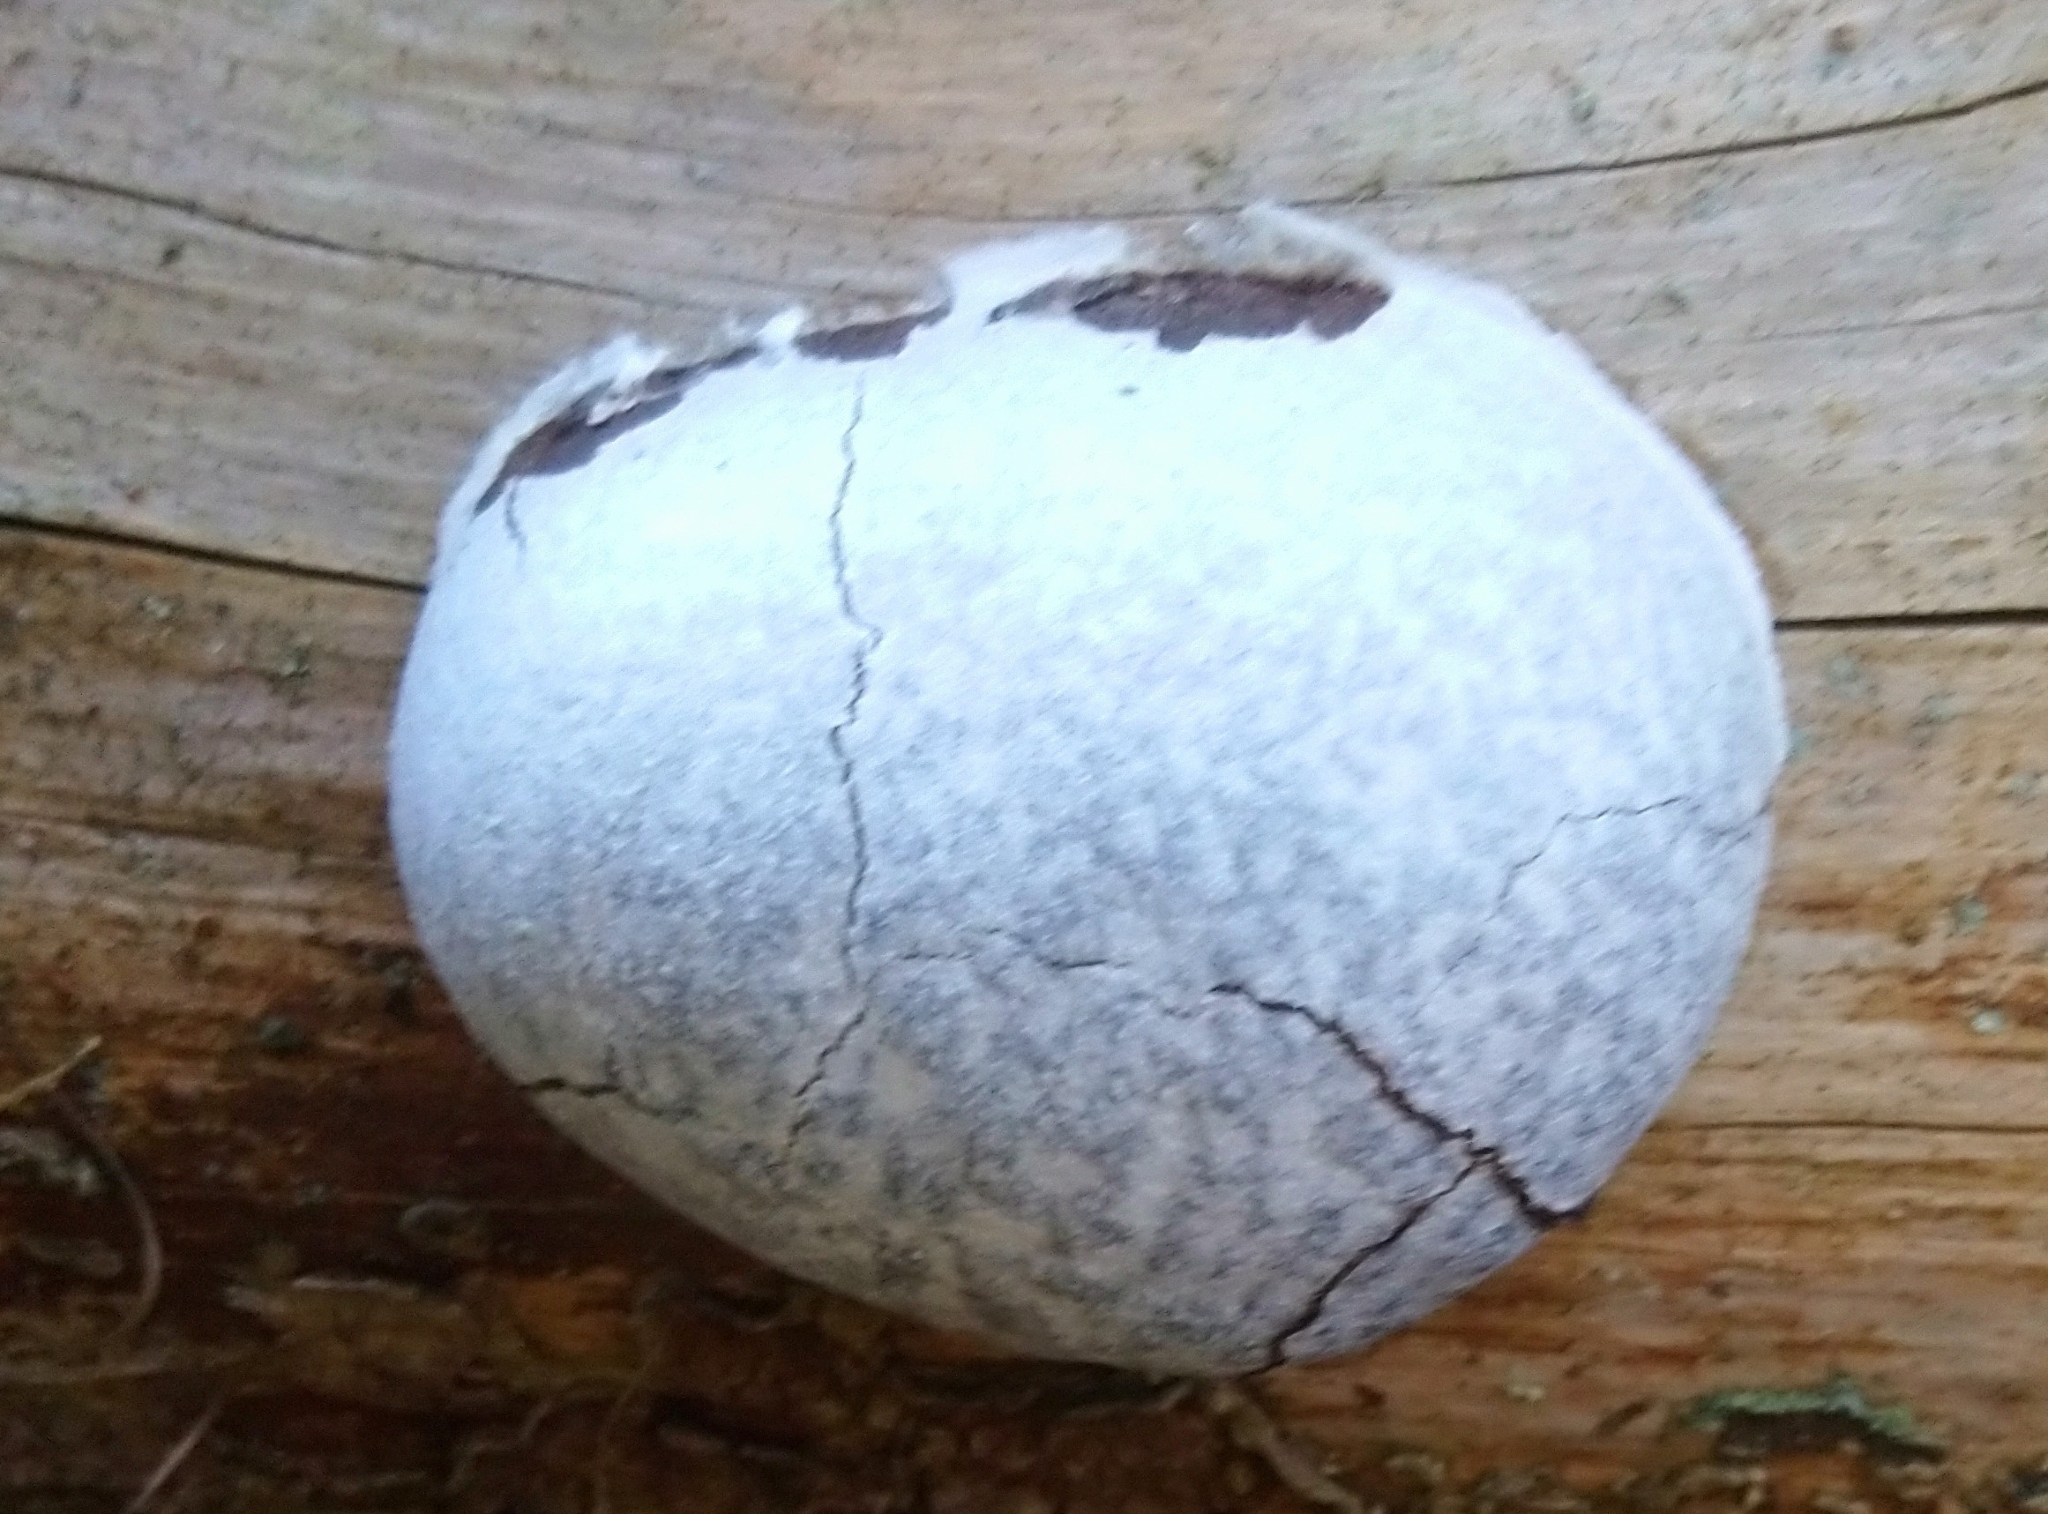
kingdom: Protozoa
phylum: Mycetozoa
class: Myxomycetes
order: Cribrariales
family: Tubiferaceae
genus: Reticularia
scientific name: Reticularia lycoperdon
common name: False puffball
